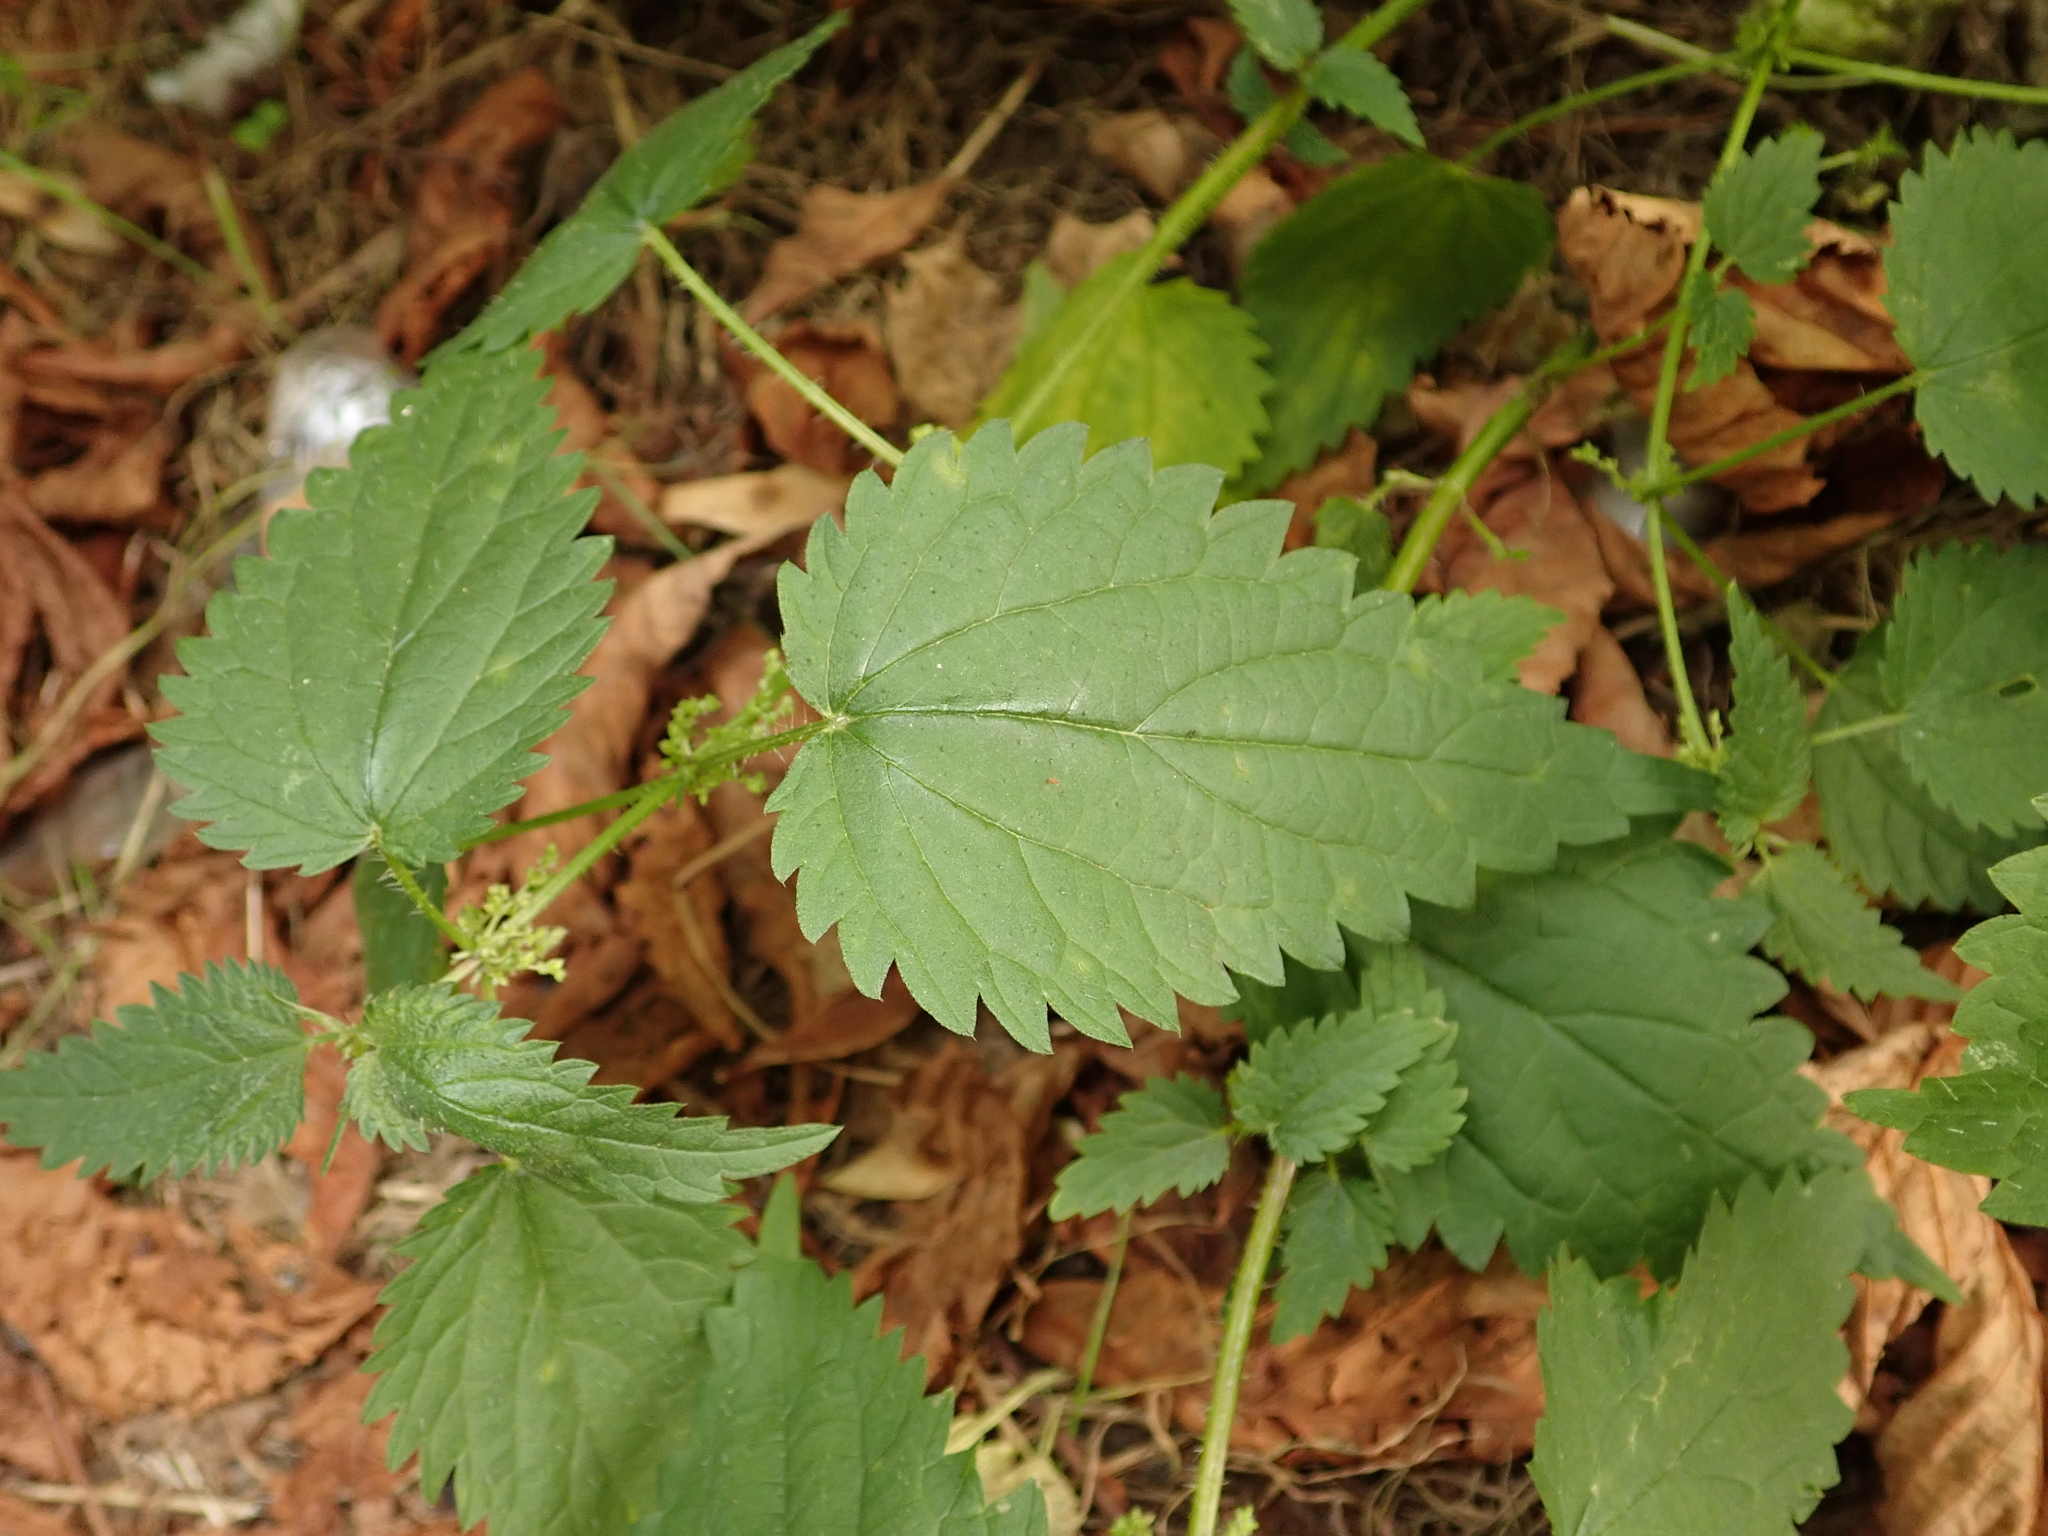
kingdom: Plantae
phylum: Tracheophyta
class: Magnoliopsida
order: Rosales
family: Urticaceae
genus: Urtica
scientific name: Urtica dioica
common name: Common nettle
